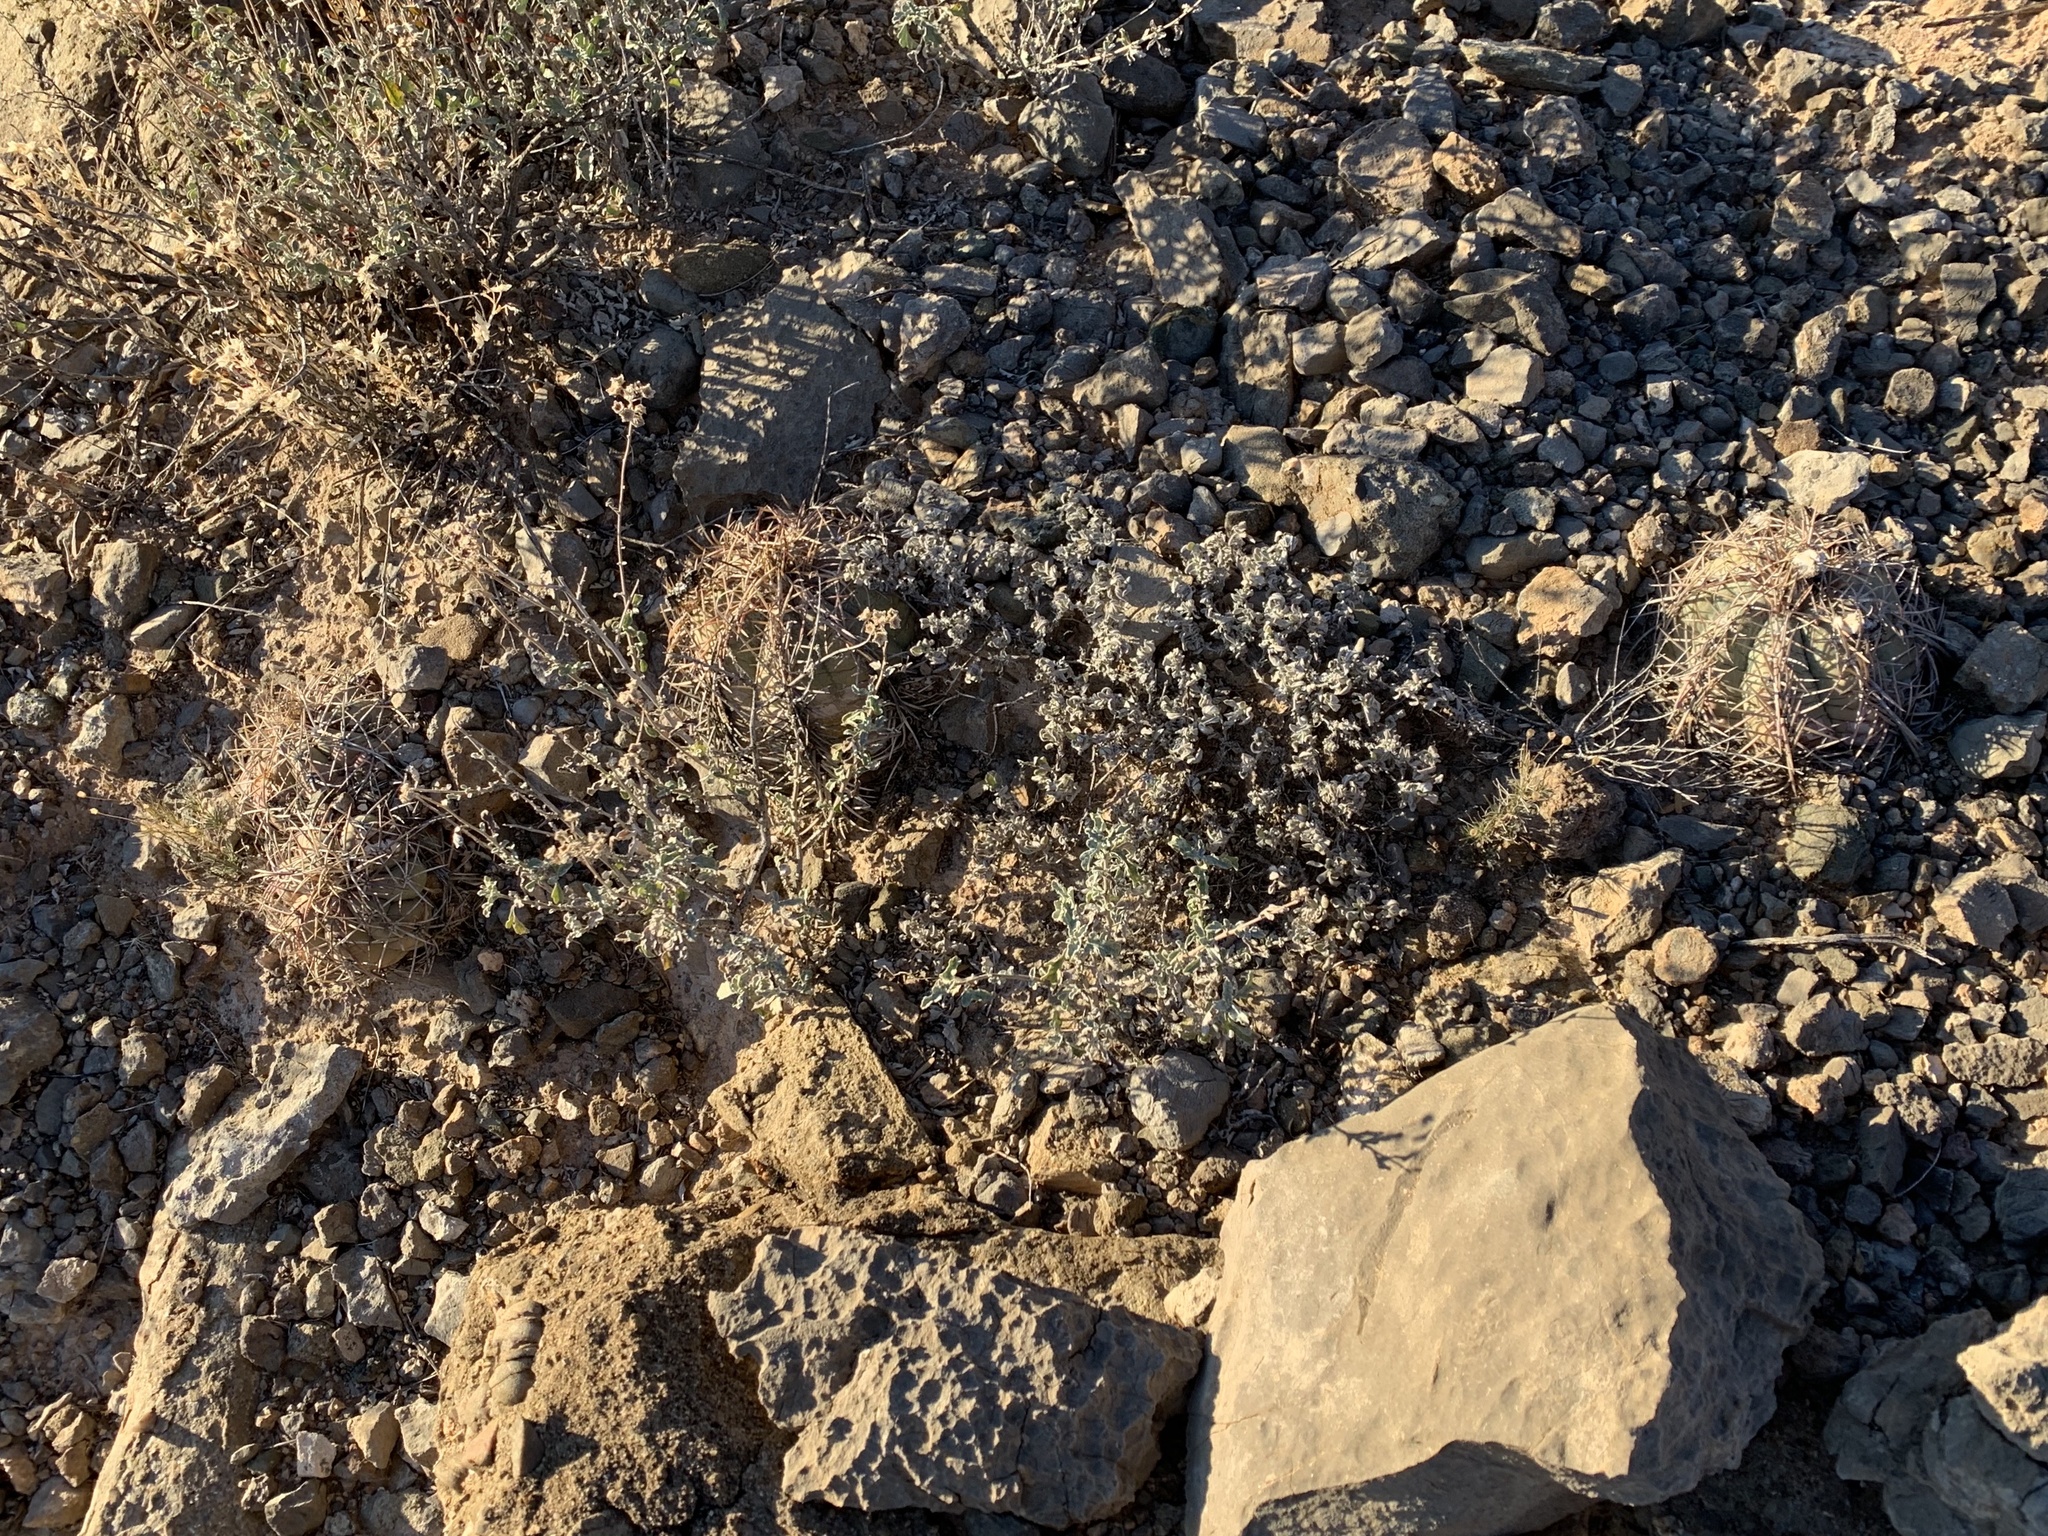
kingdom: Plantae
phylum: Tracheophyta
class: Magnoliopsida
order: Caryophyllales
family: Cactaceae
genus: Echinocactus
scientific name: Echinocactus horizonthalonius
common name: Devilshead
